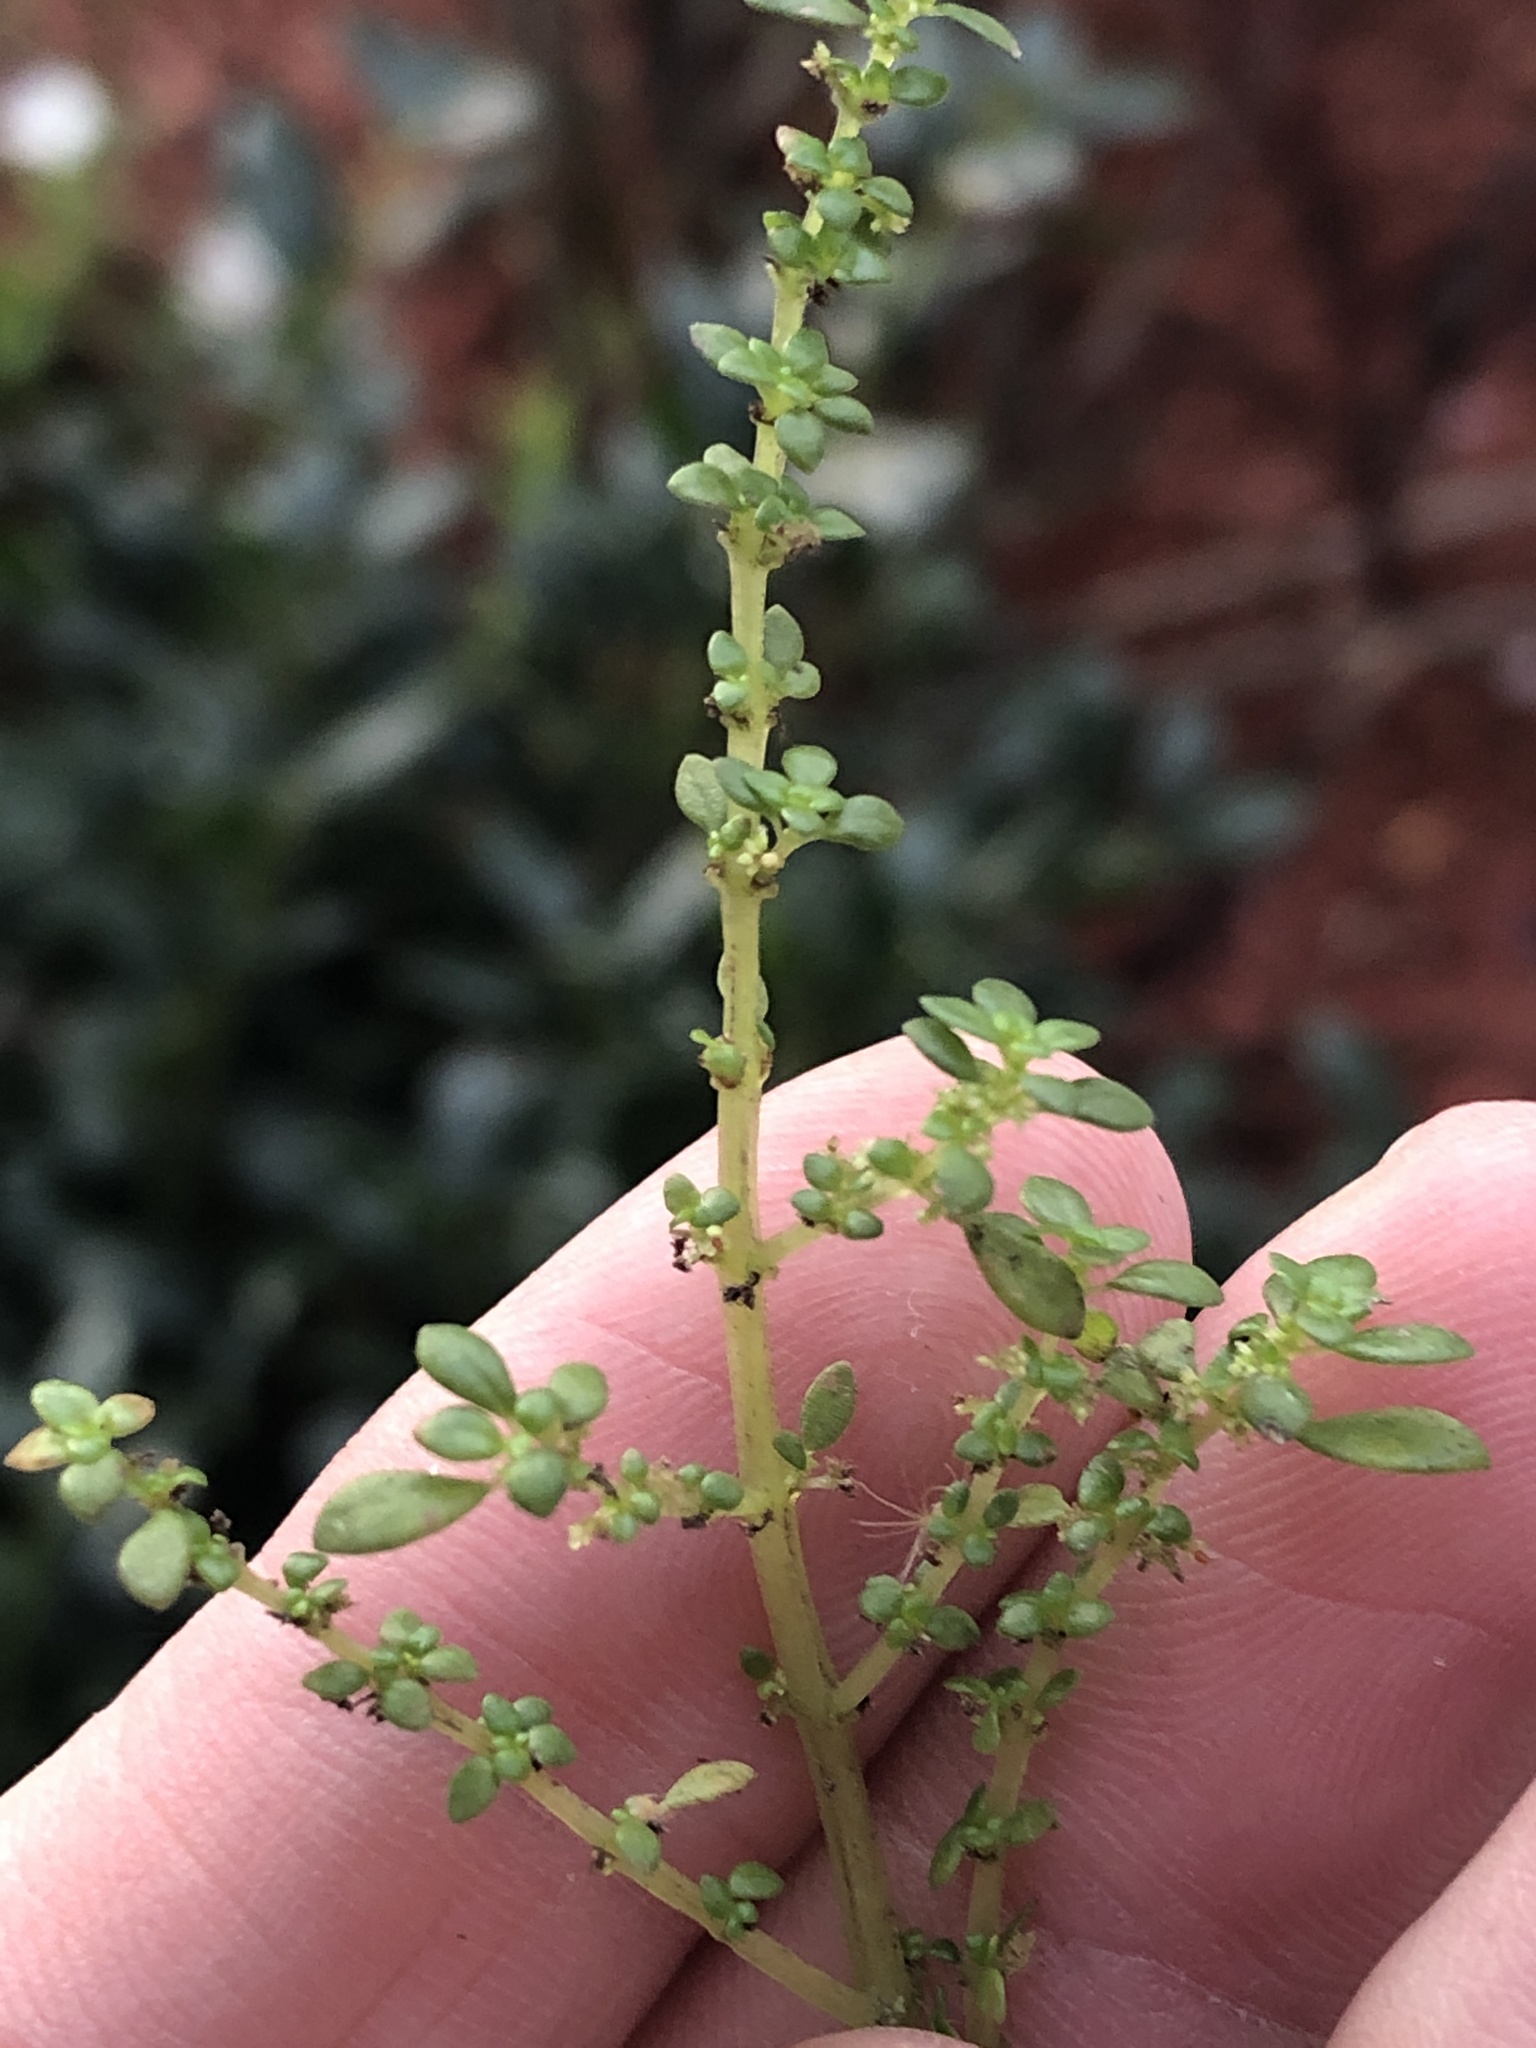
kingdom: Plantae
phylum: Tracheophyta
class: Magnoliopsida
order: Rosales
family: Urticaceae
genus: Pilea
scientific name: Pilea microphylla
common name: Artillery-plant
